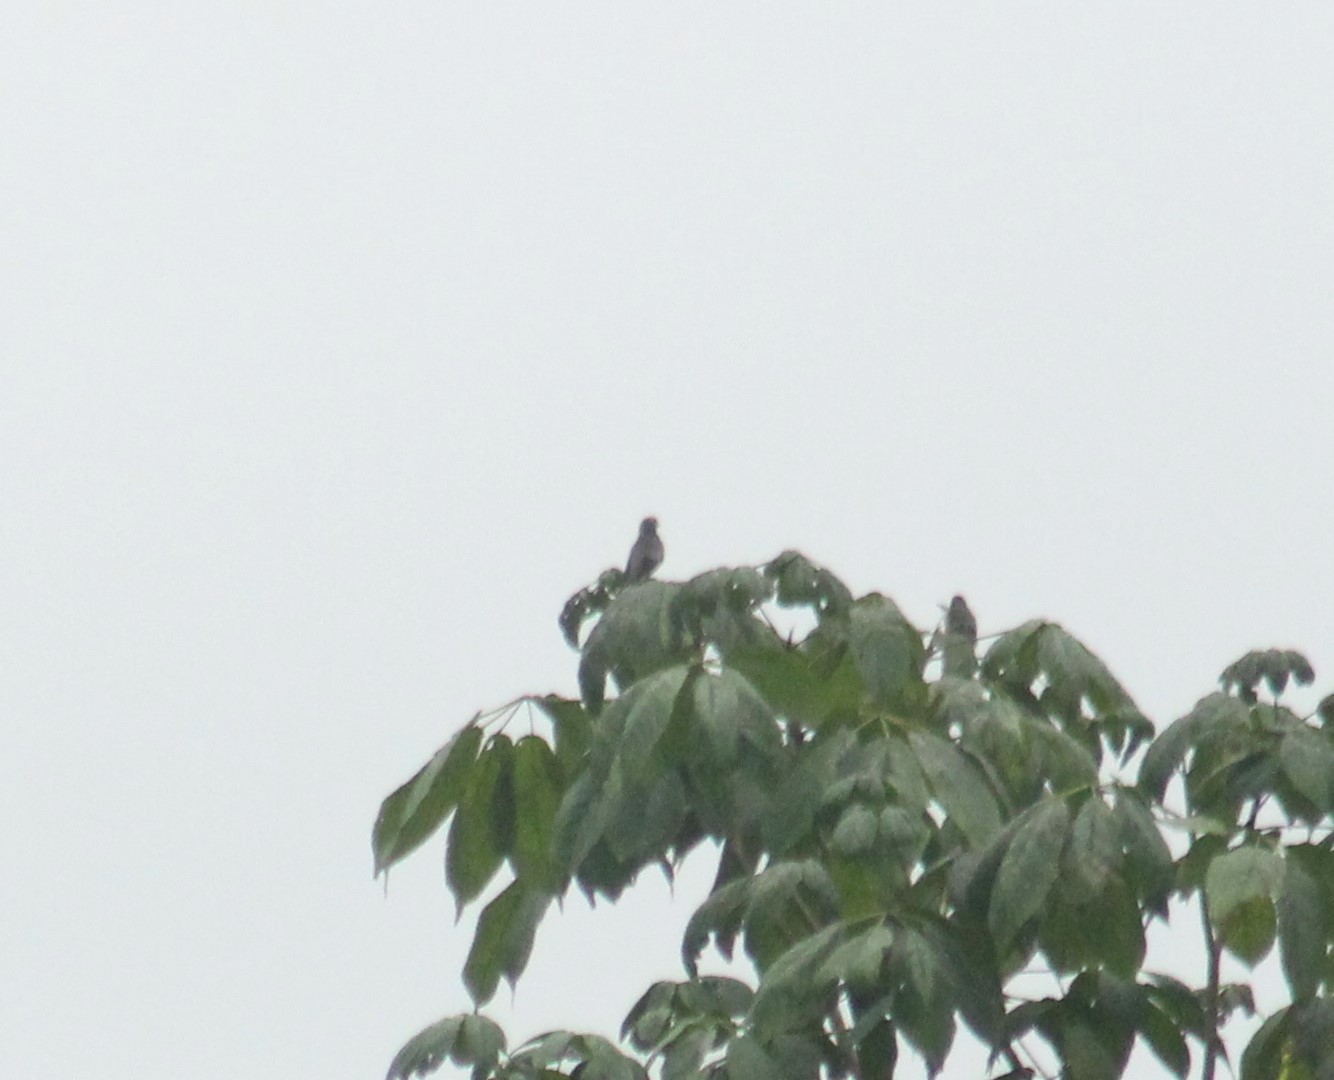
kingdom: Animalia
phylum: Chordata
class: Aves
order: Psittaciformes
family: Psittacidae
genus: Pionus
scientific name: Pionus chalcopterus
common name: Bronze-winged parrot
